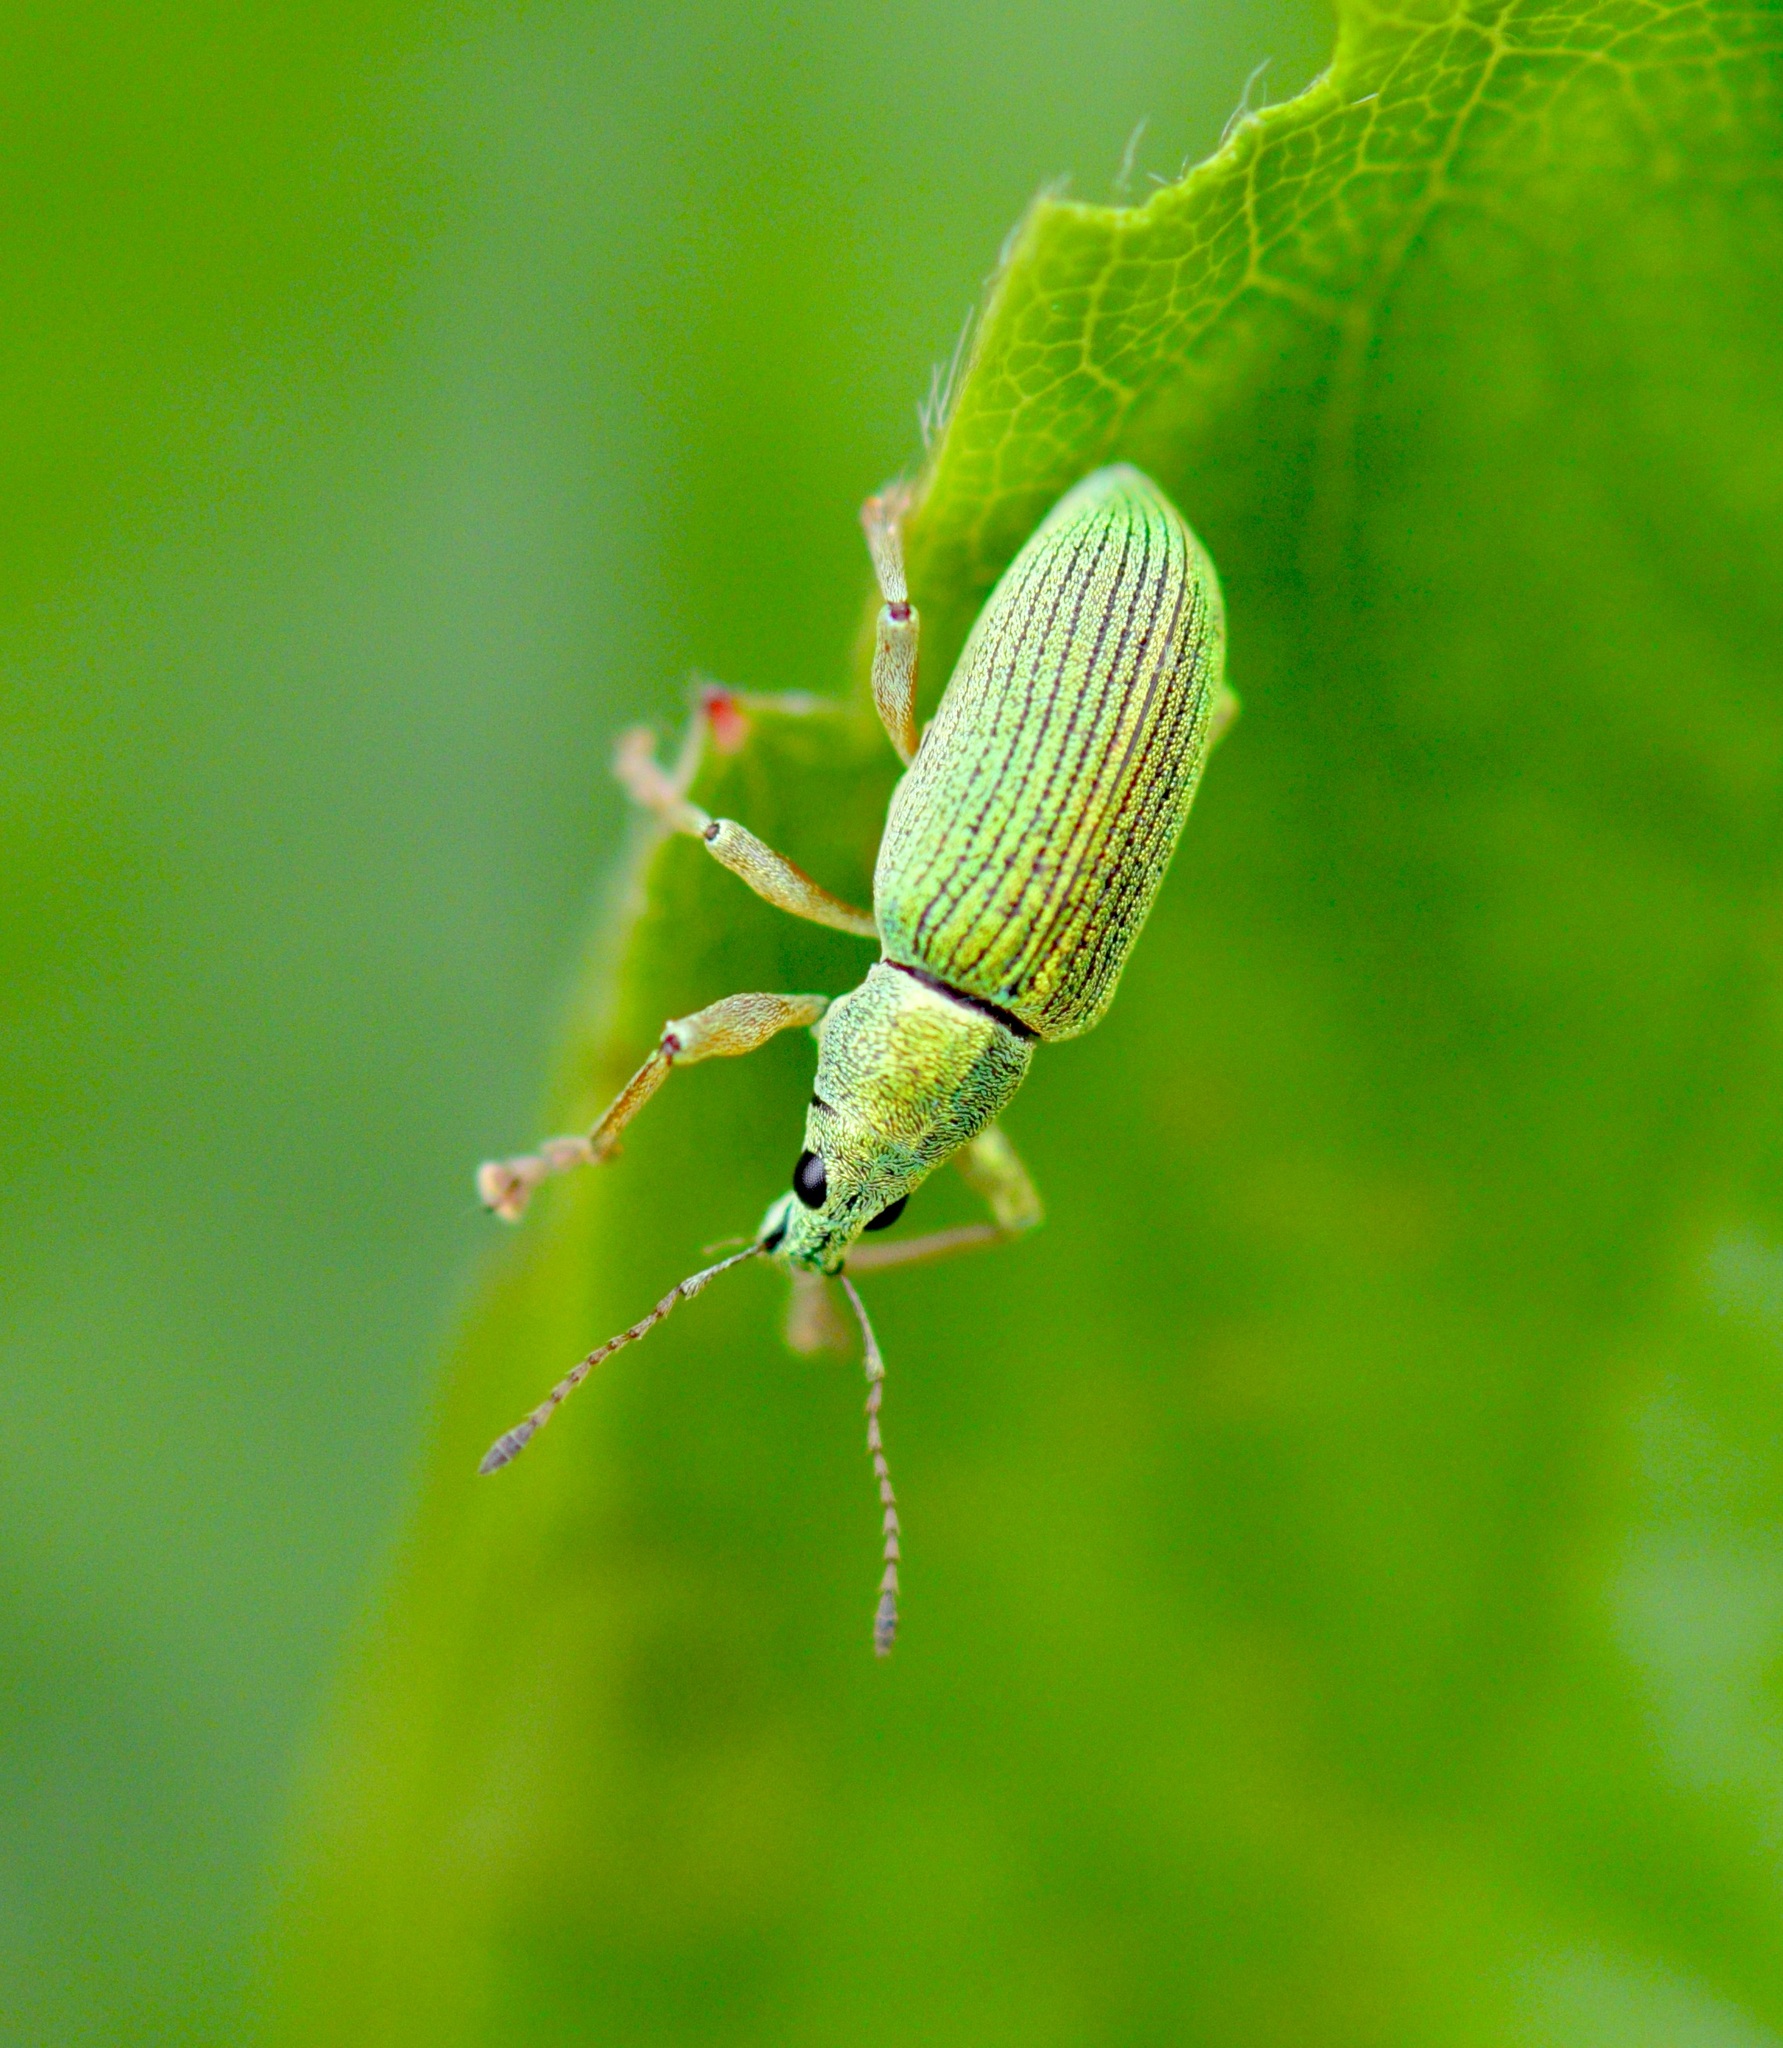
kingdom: Animalia
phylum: Arthropoda
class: Insecta
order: Coleoptera
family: Curculionidae
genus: Polydrusus
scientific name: Polydrusus formosus
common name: Weevil
